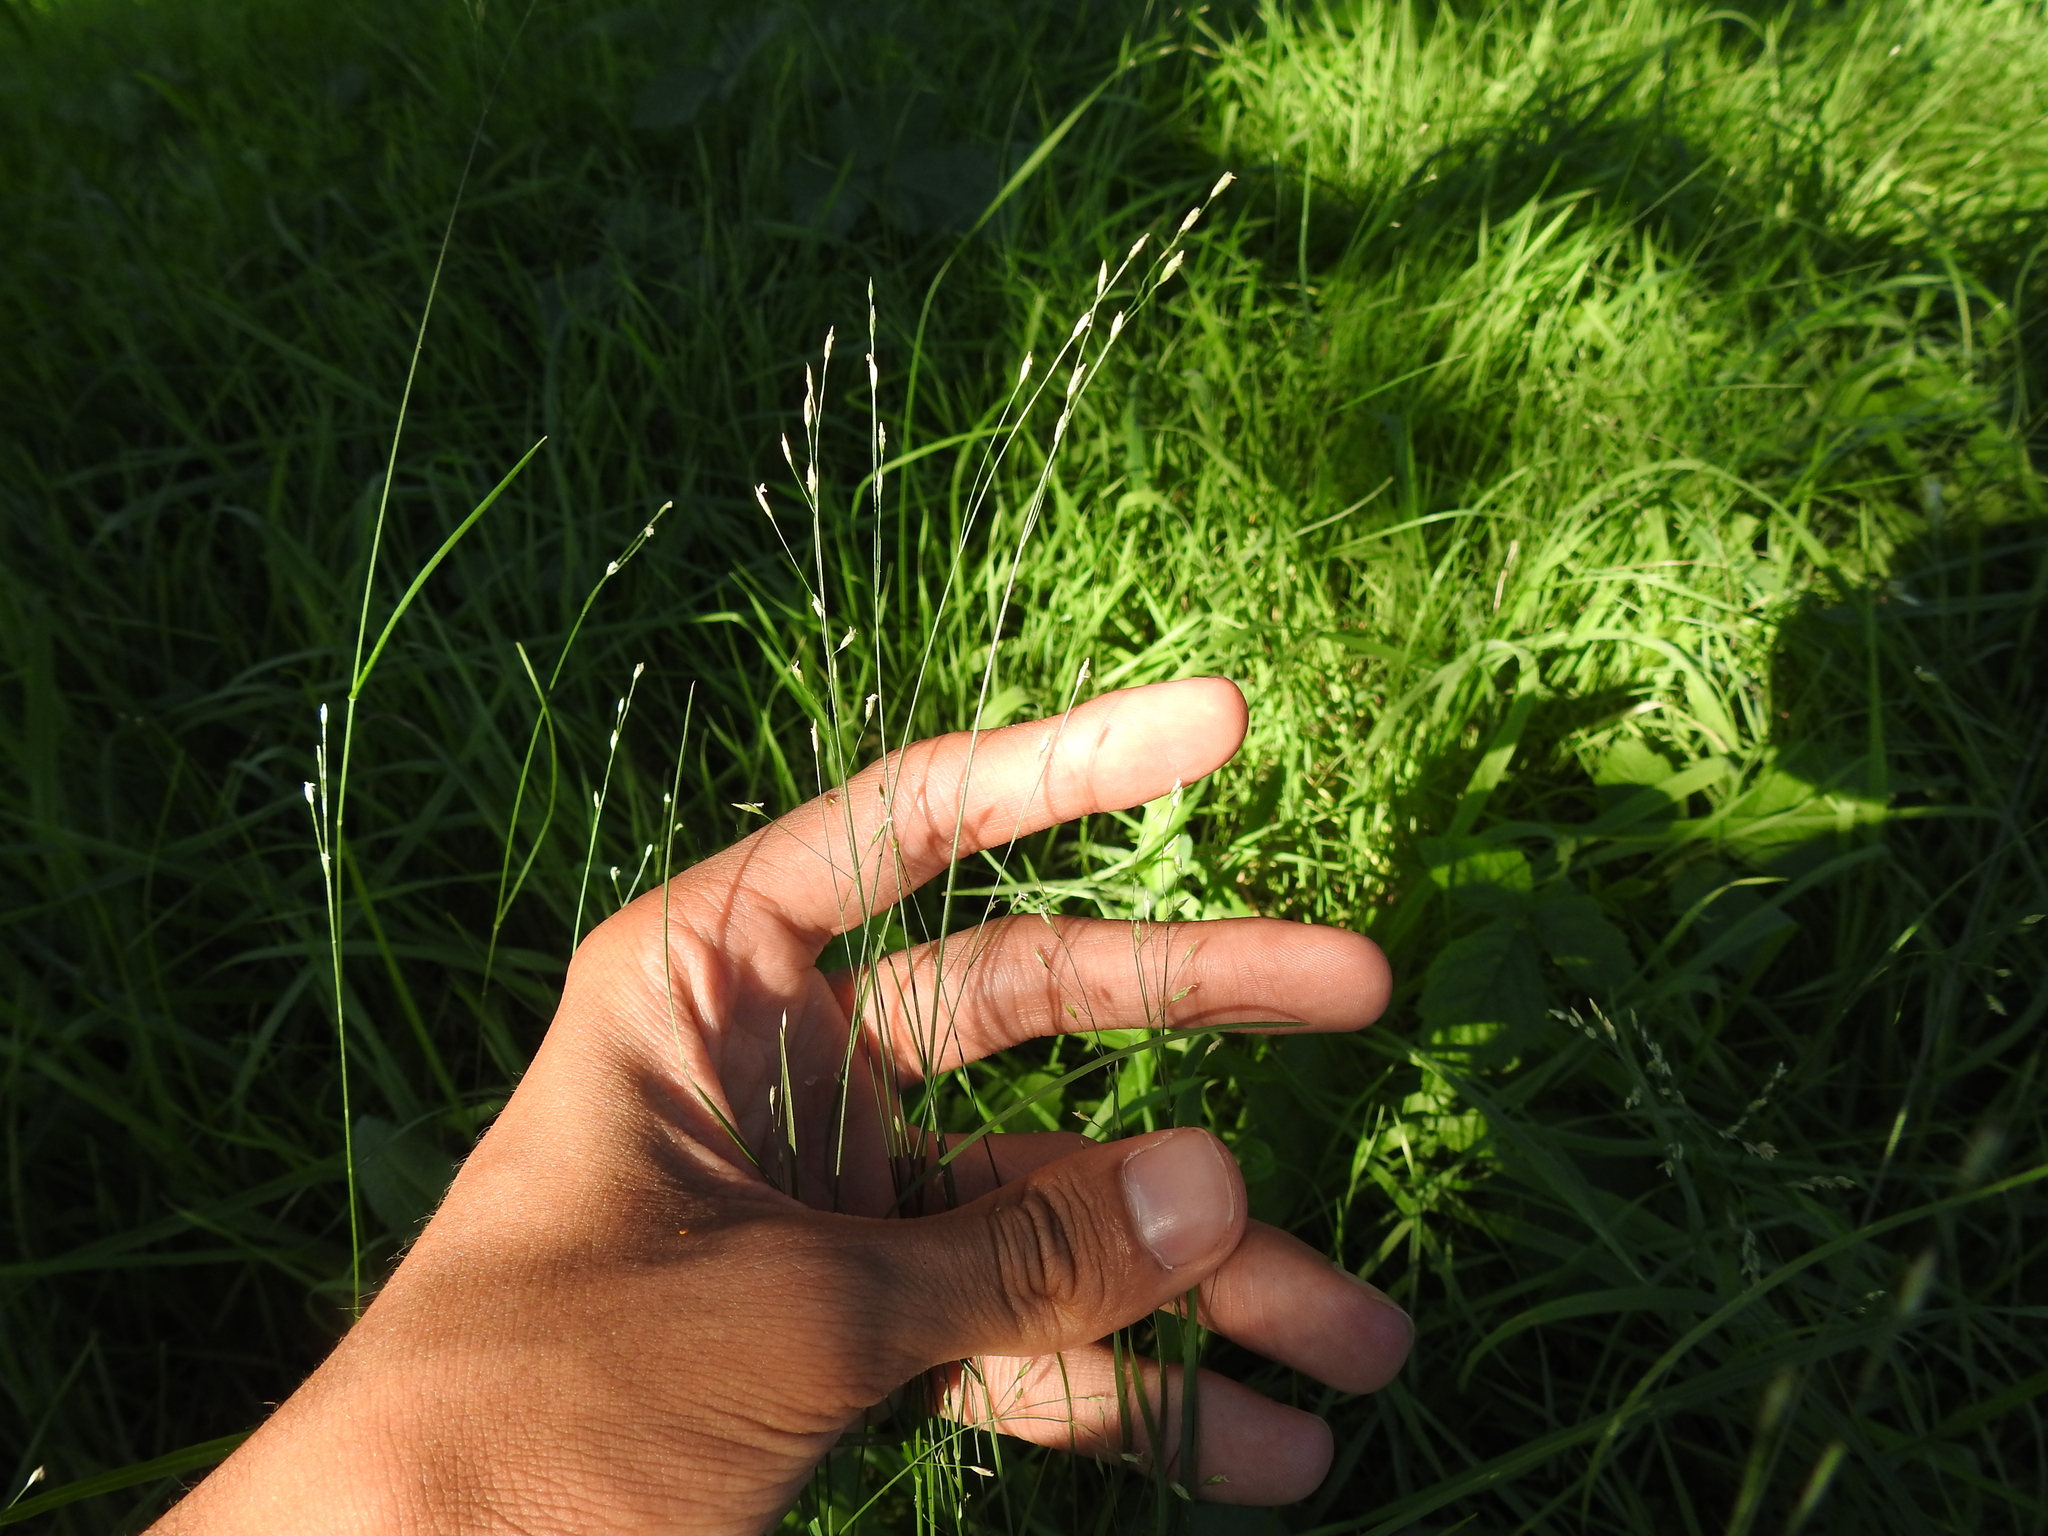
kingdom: Plantae
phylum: Tracheophyta
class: Liliopsida
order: Poales
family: Poaceae
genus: Melica
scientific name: Melica uniflora
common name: Wood melick
